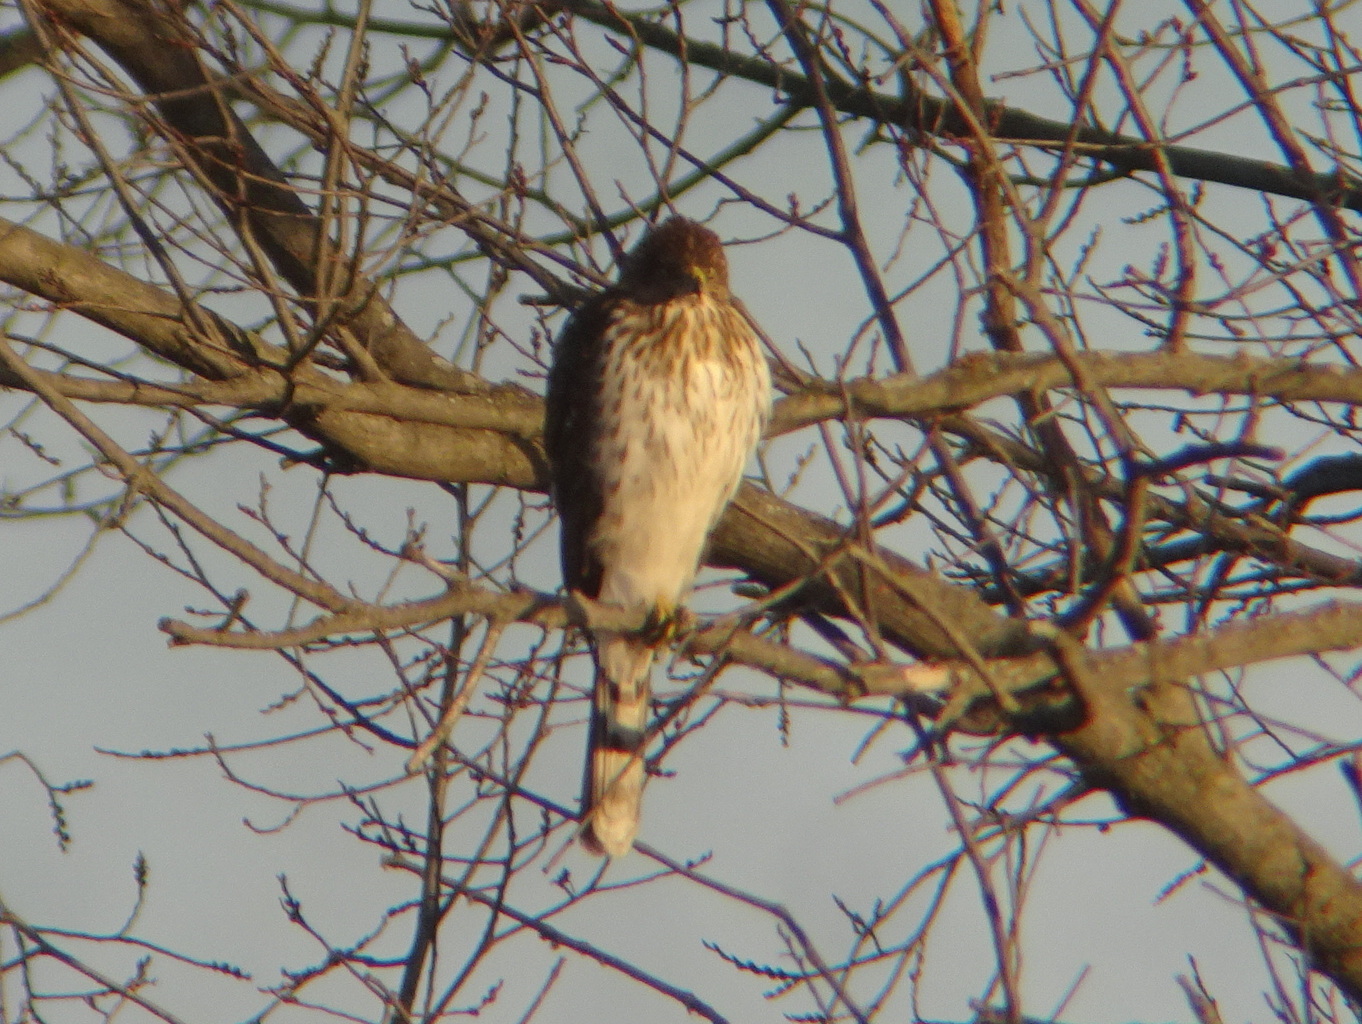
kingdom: Animalia
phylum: Chordata
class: Aves
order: Accipitriformes
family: Accipitridae
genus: Accipiter
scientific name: Accipiter cooperii
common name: Cooper's hawk
